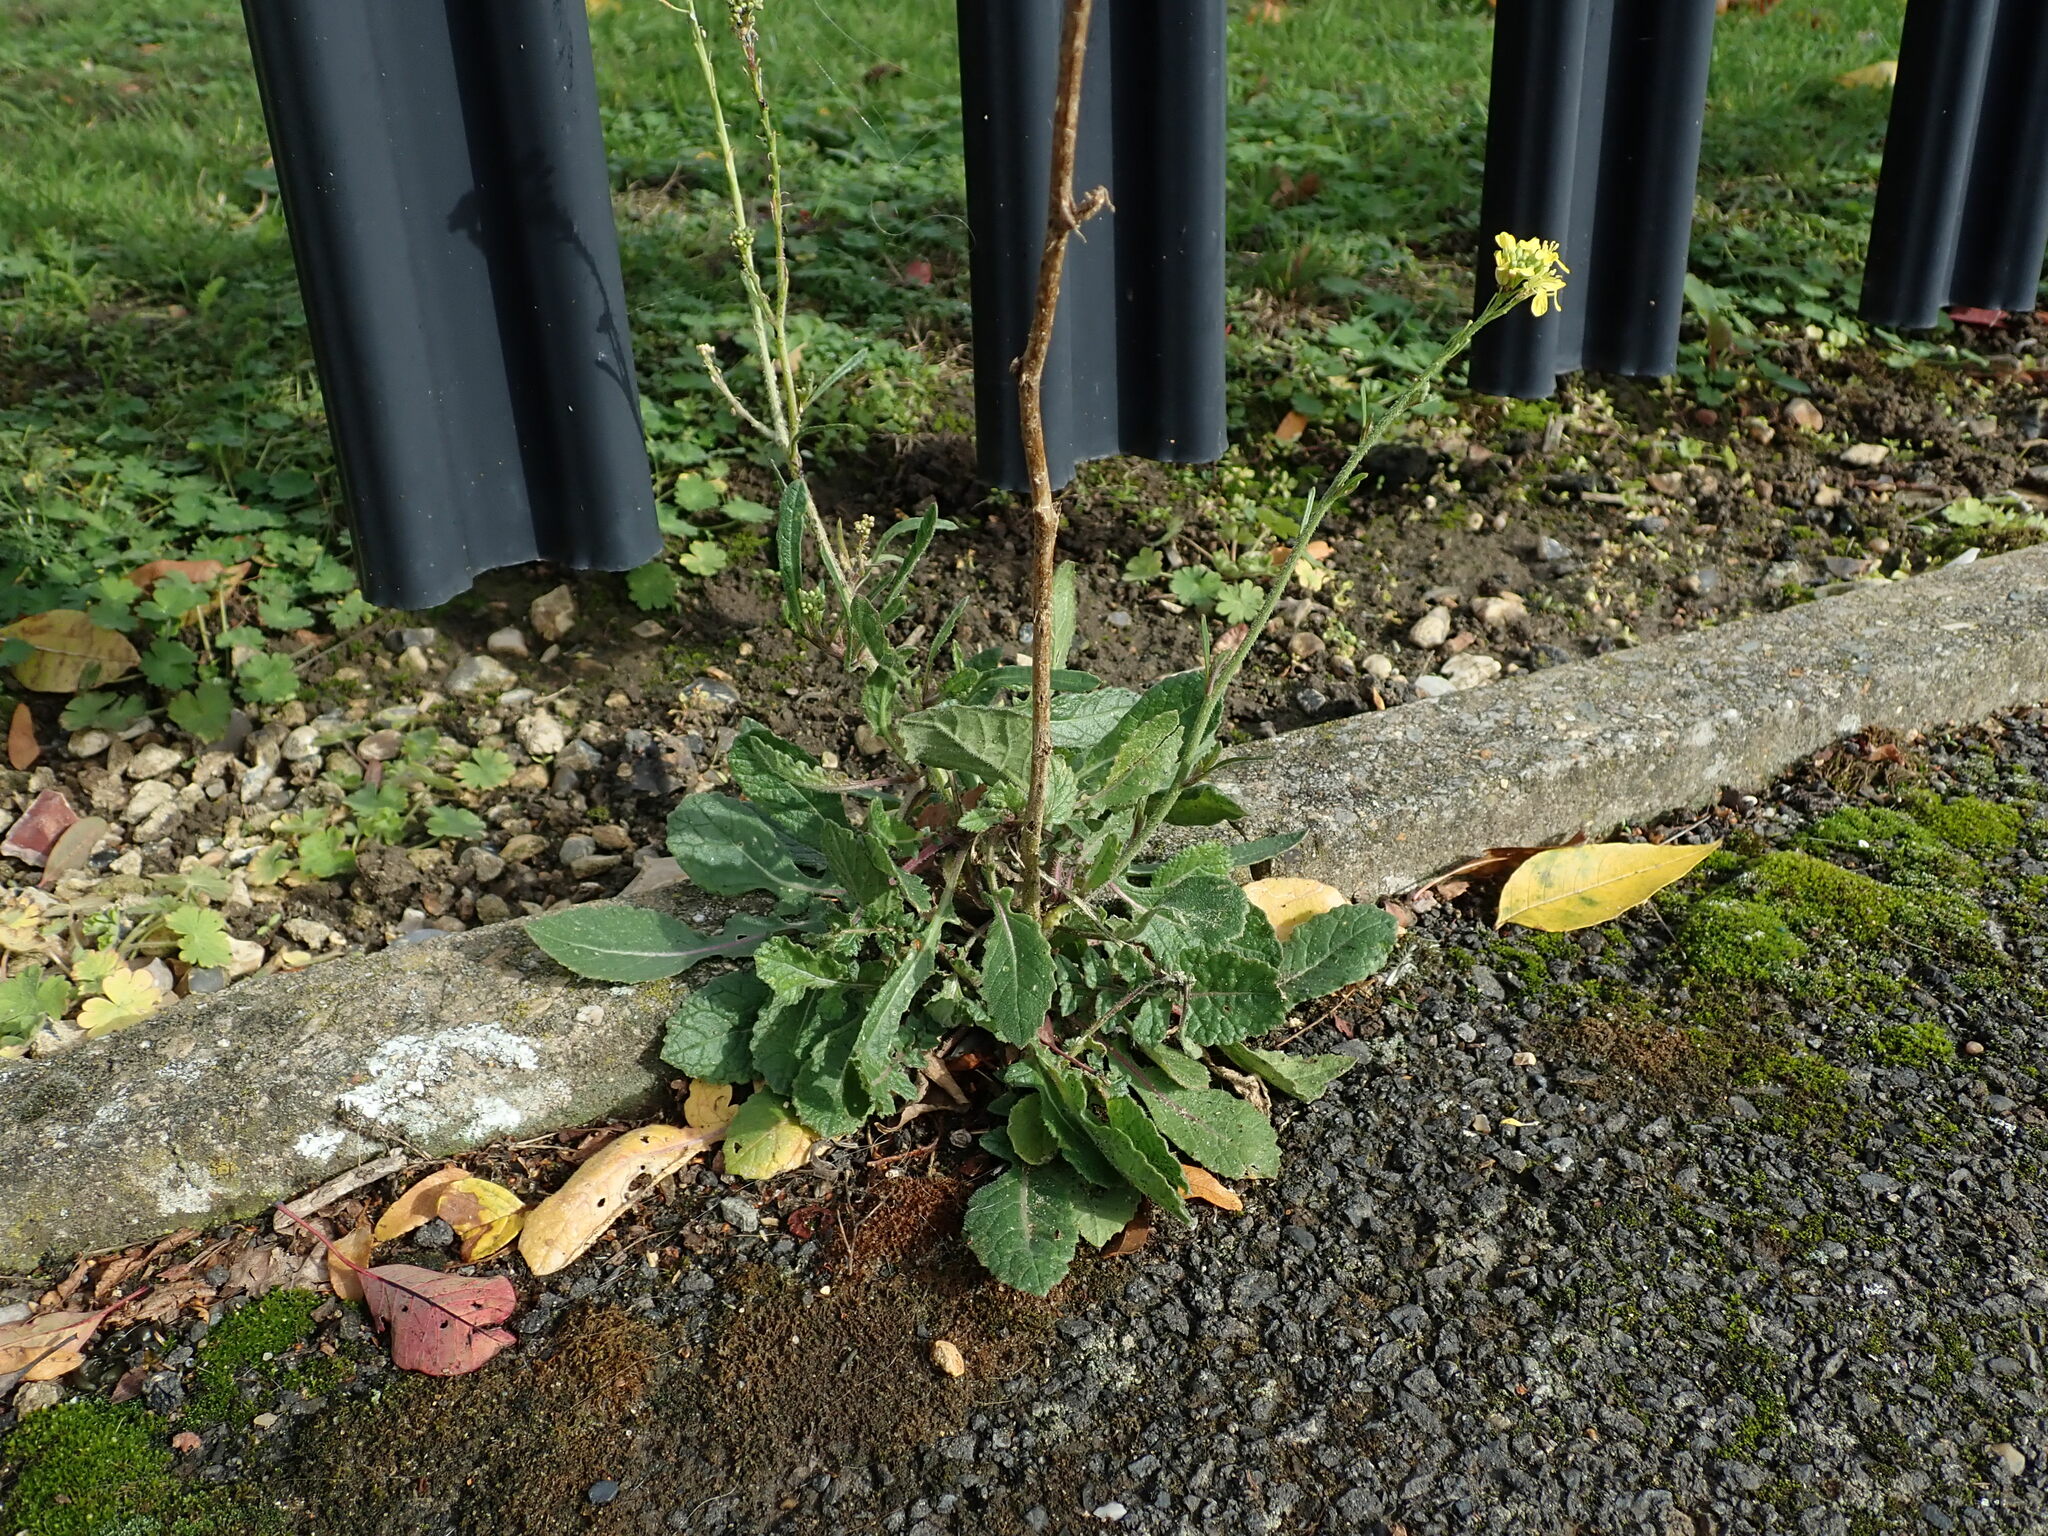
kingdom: Plantae
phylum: Tracheophyta
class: Magnoliopsida
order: Brassicales
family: Brassicaceae
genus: Hirschfeldia
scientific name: Hirschfeldia incana
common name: Hoary mustard
